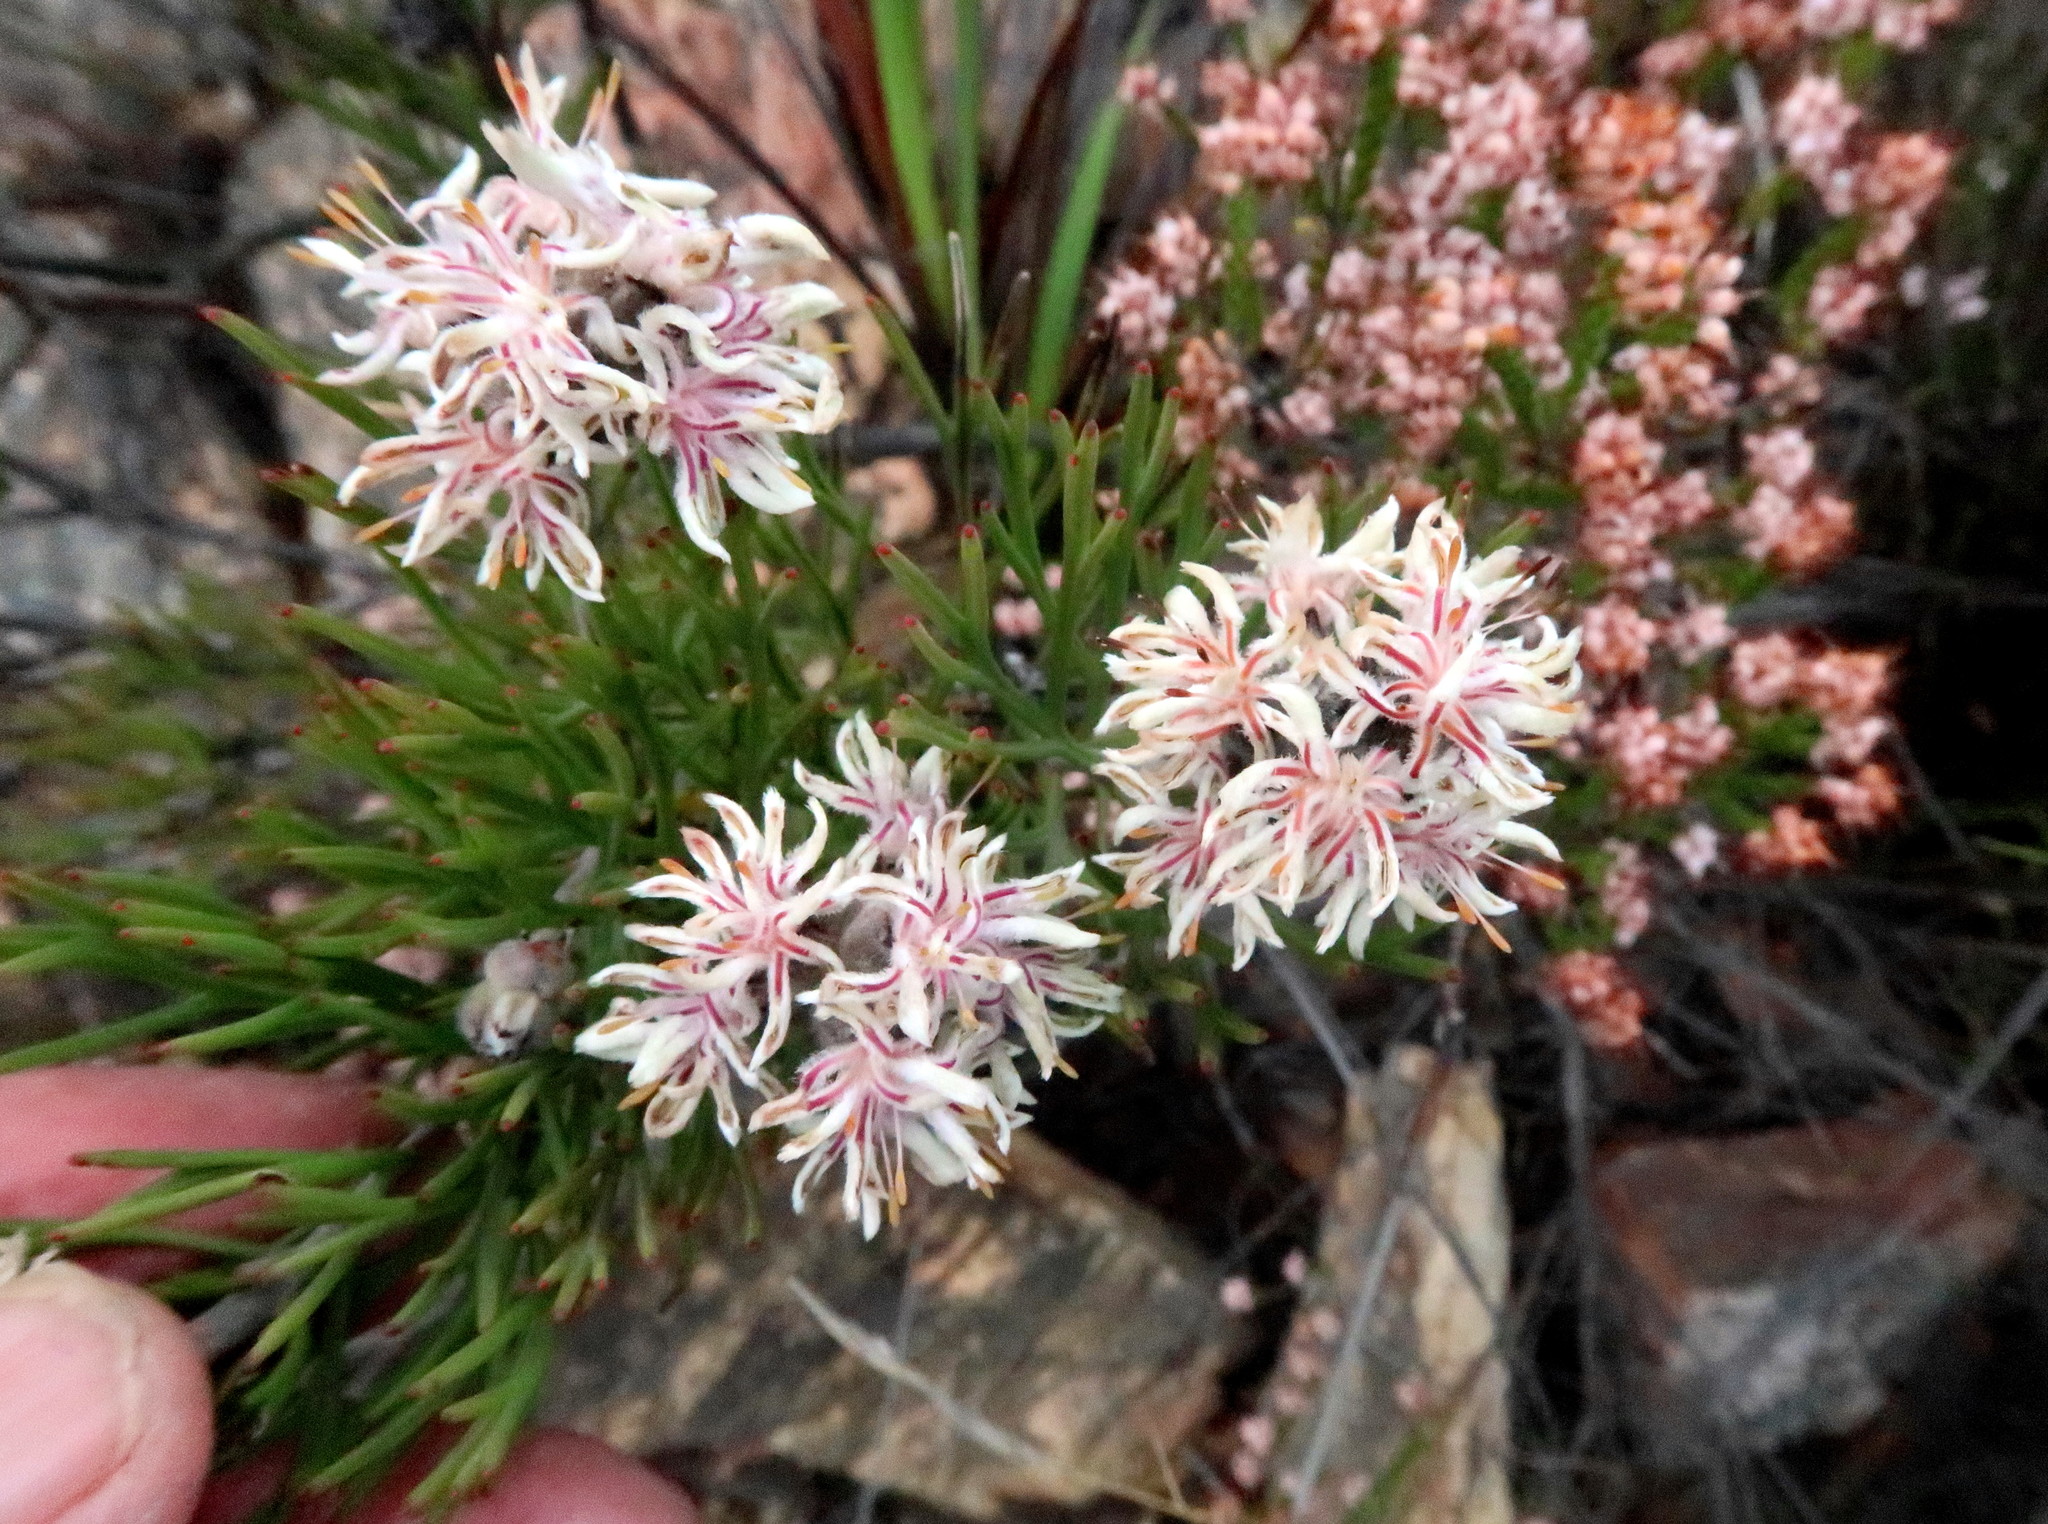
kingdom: Plantae
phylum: Tracheophyta
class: Magnoliopsida
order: Proteales
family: Proteaceae
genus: Paranomus
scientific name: Paranomus dregei
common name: Scented sceptre
